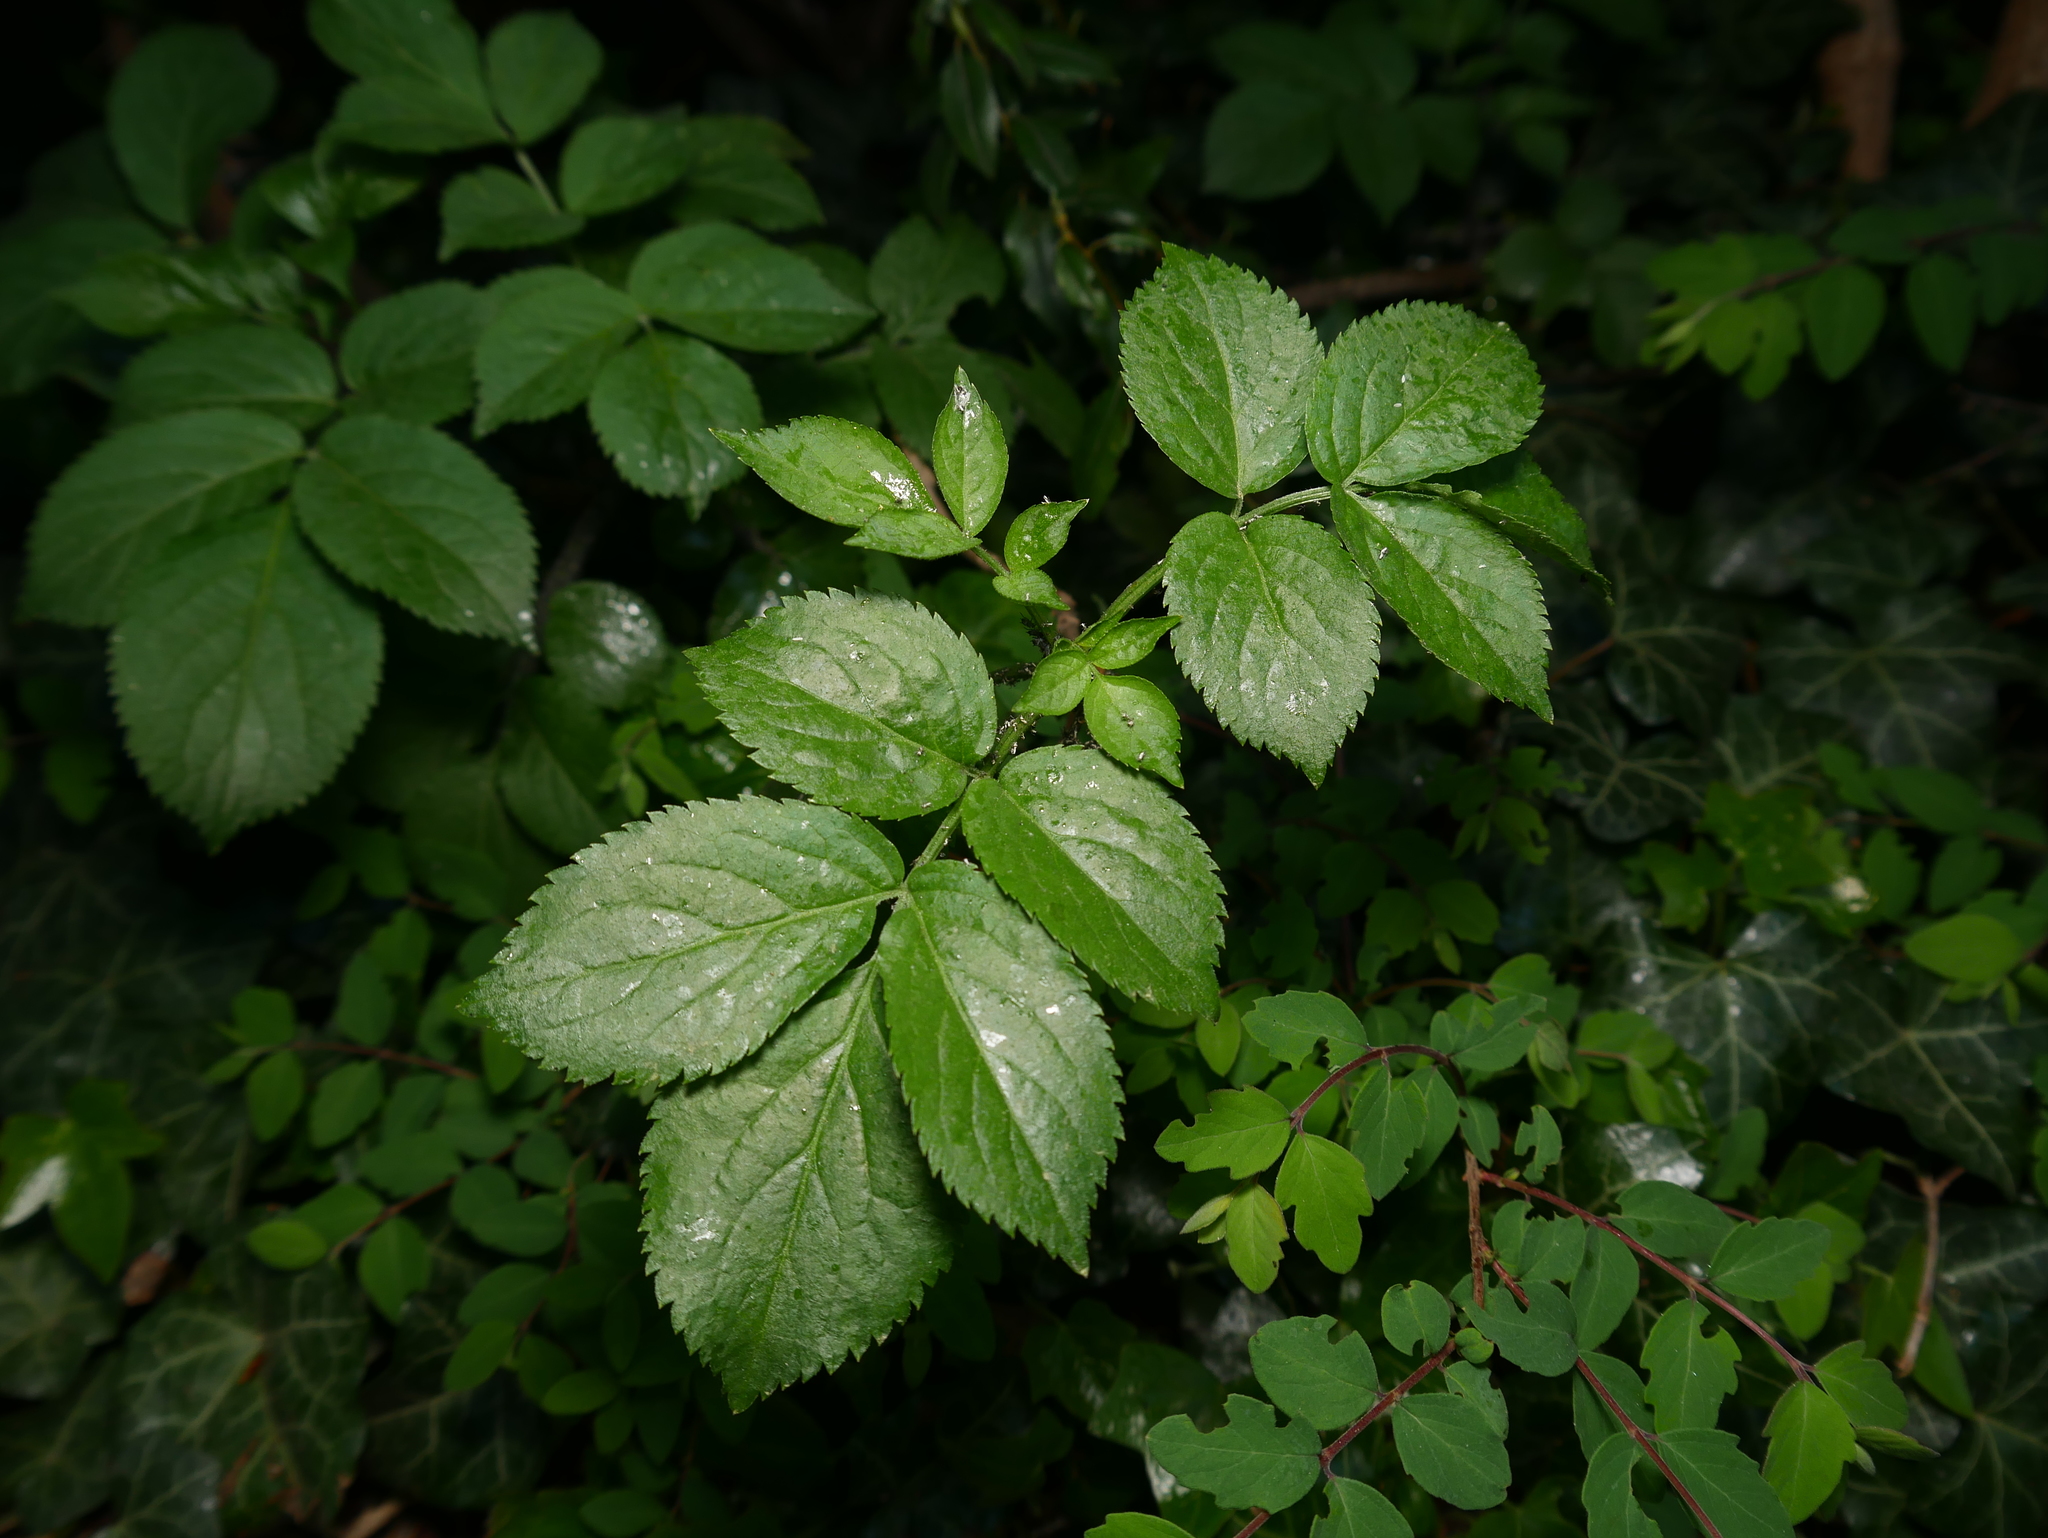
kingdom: Plantae
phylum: Tracheophyta
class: Magnoliopsida
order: Dipsacales
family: Viburnaceae
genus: Sambucus
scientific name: Sambucus nigra
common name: Elder
